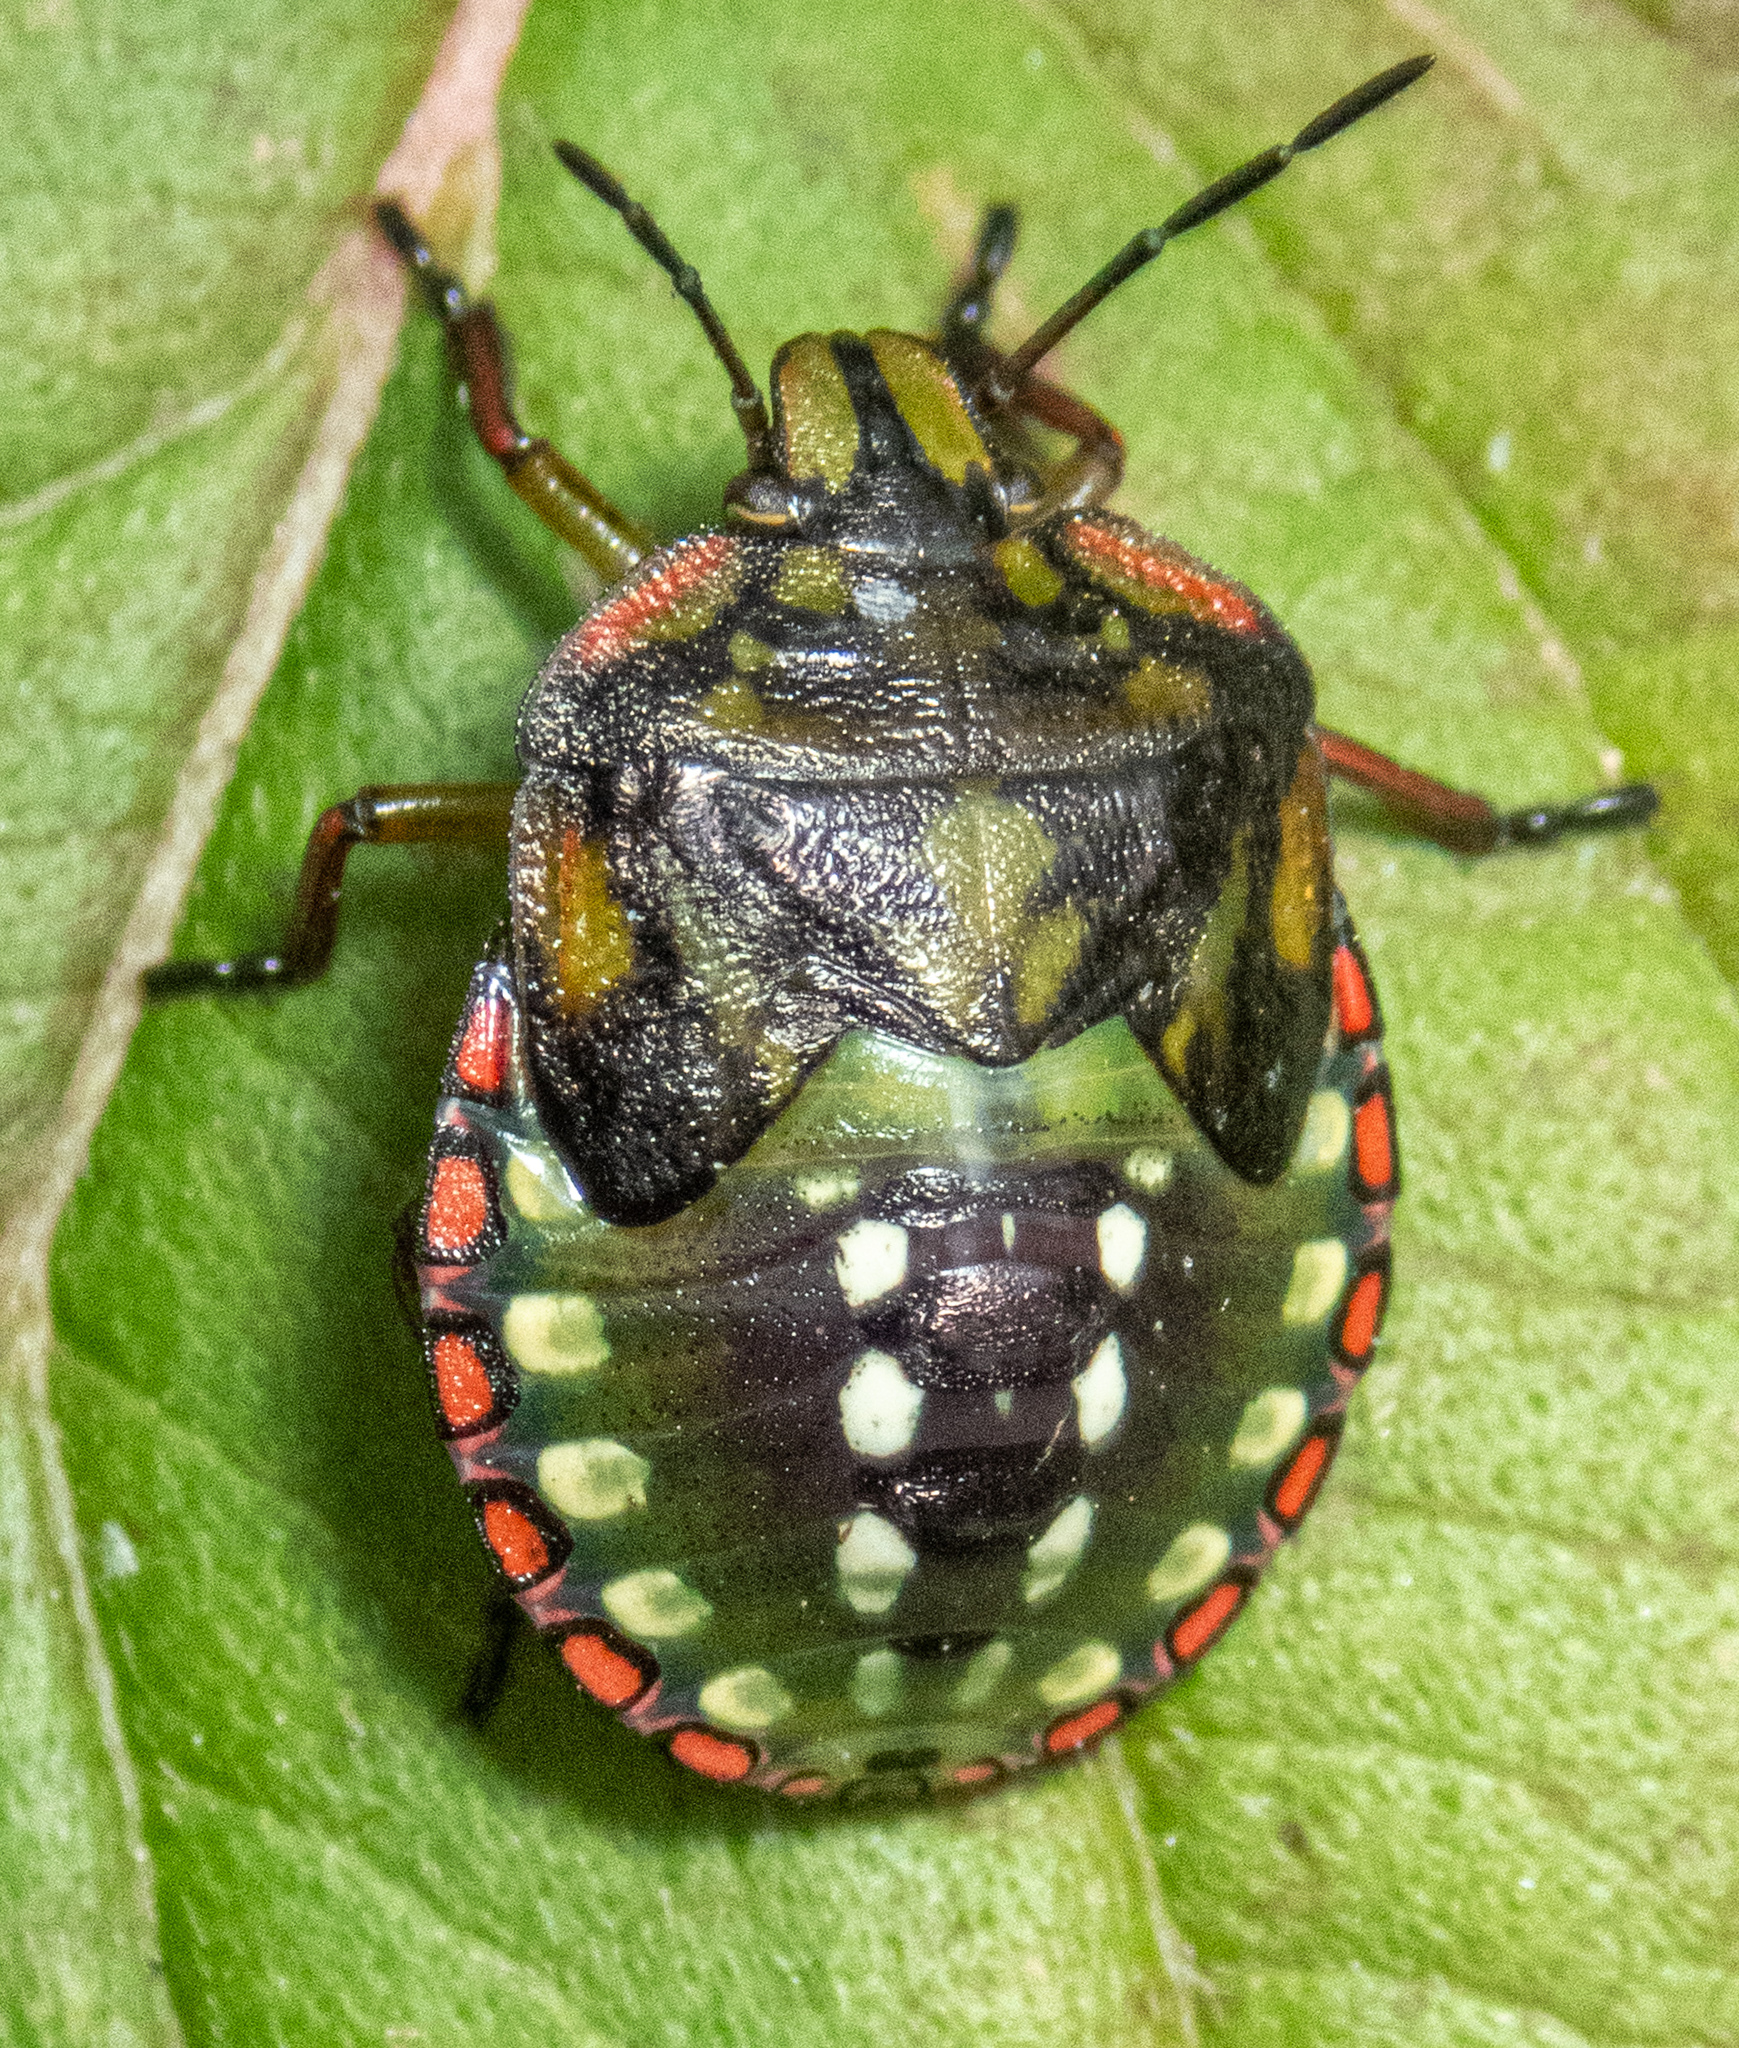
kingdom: Animalia
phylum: Arthropoda
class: Insecta
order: Hemiptera
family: Pentatomidae
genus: Nezara
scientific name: Nezara viridula
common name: Southern green stink bug
